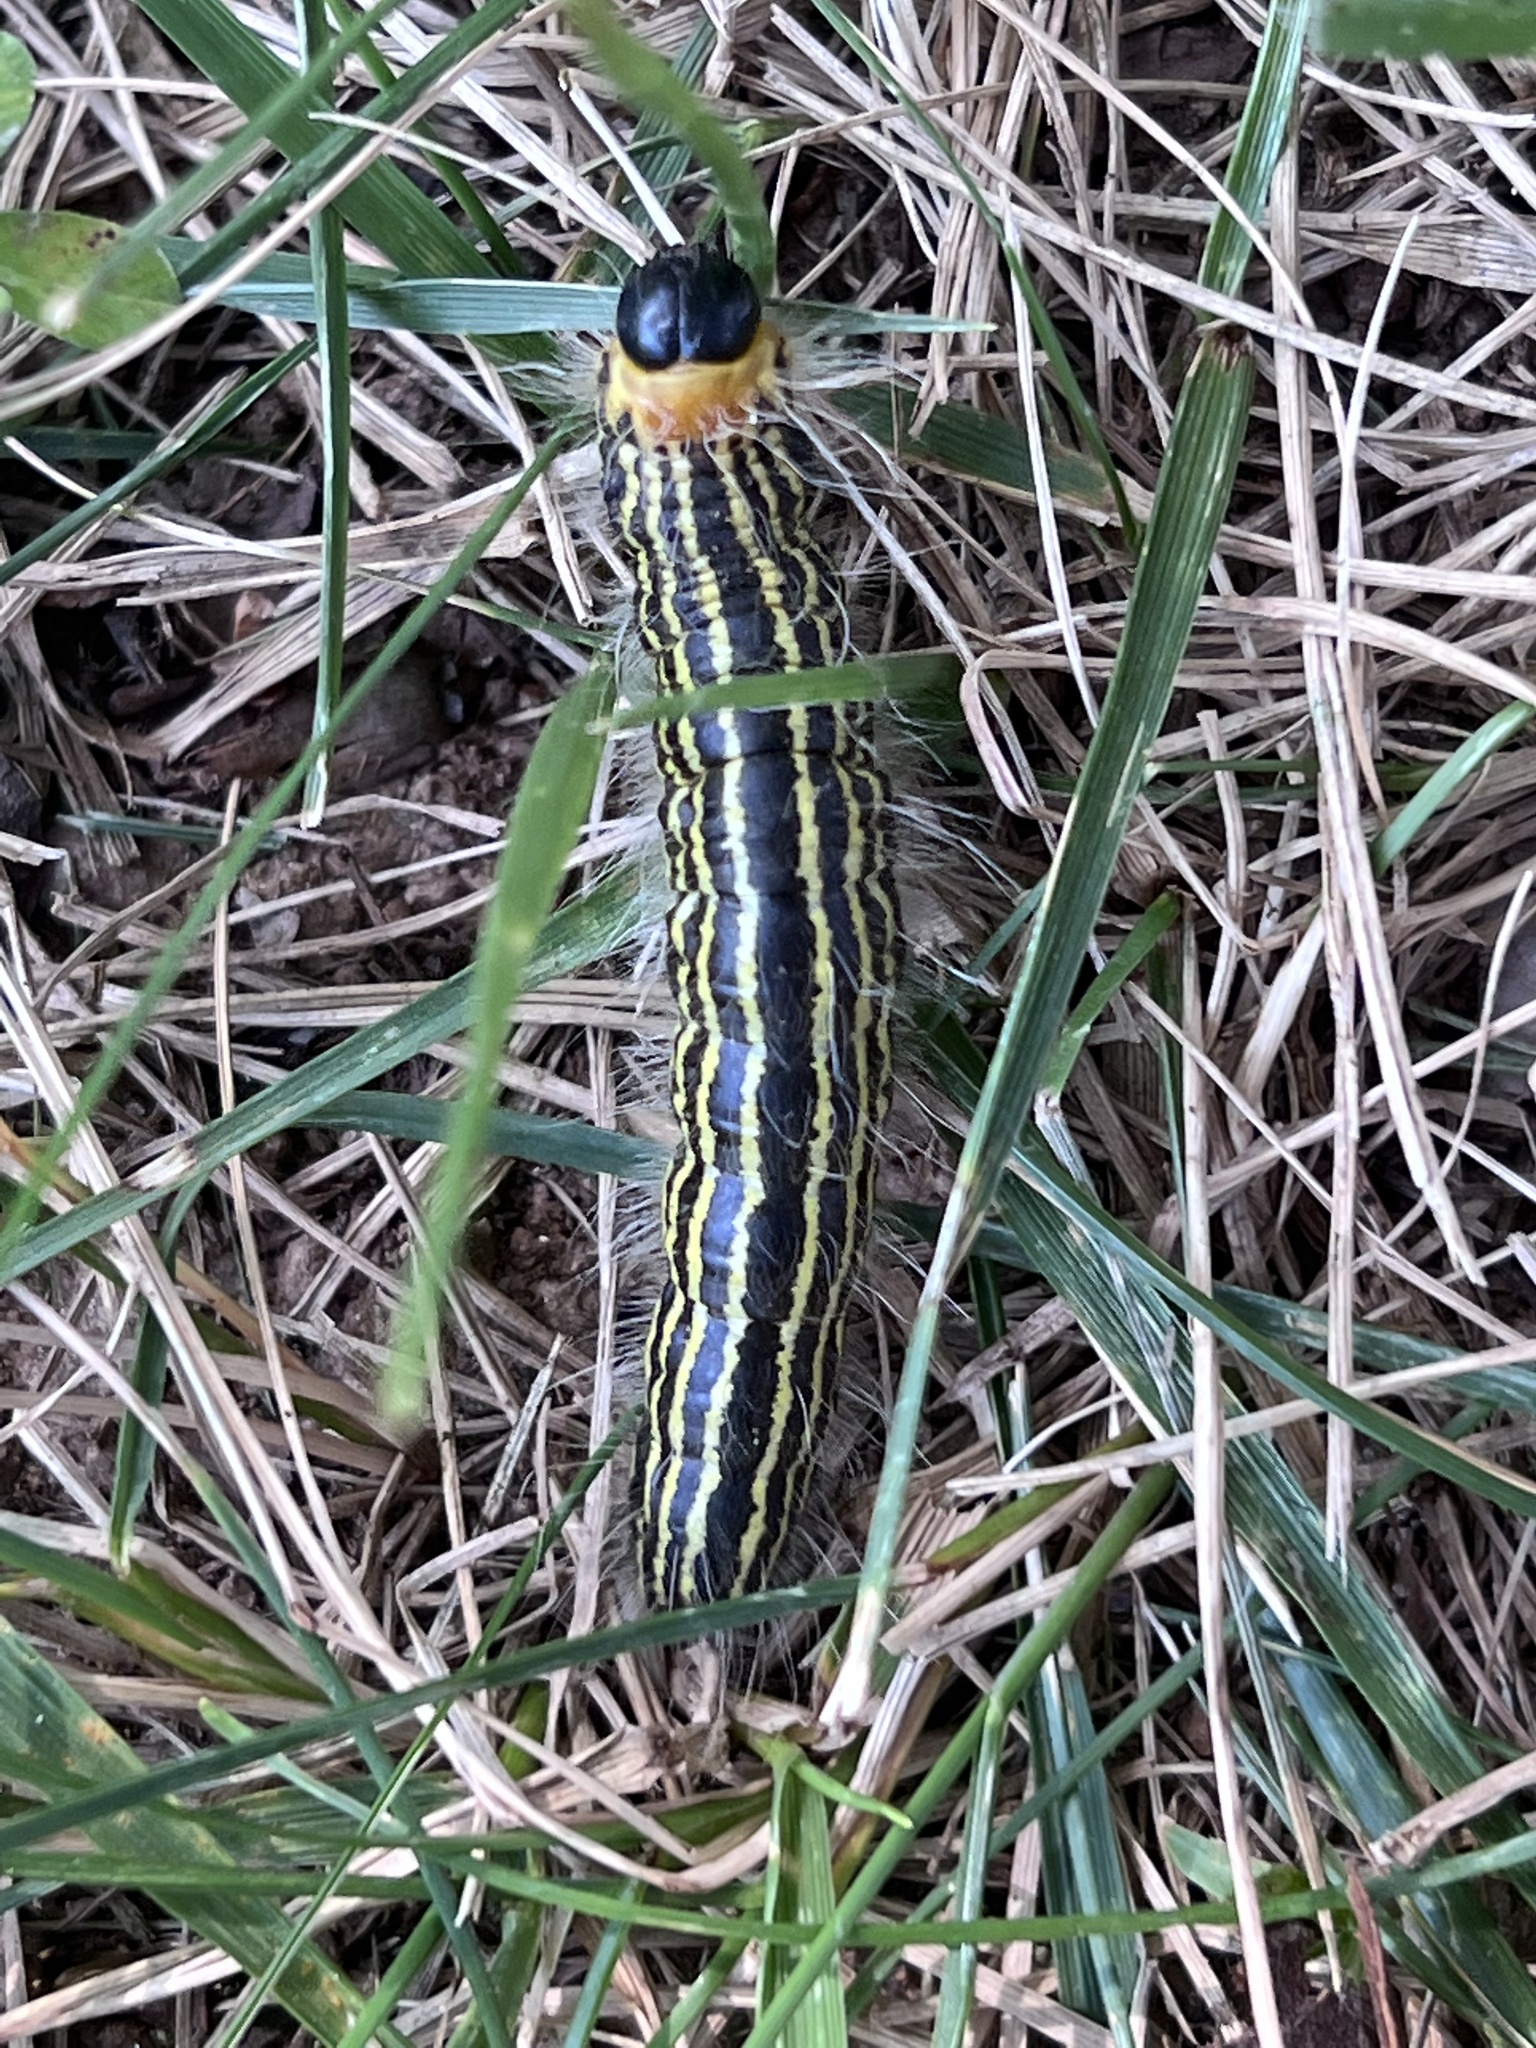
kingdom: Animalia
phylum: Arthropoda
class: Insecta
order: Lepidoptera
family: Notodontidae
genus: Datana
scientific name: Datana ministra
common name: Yellow-necked caterpillar moth
